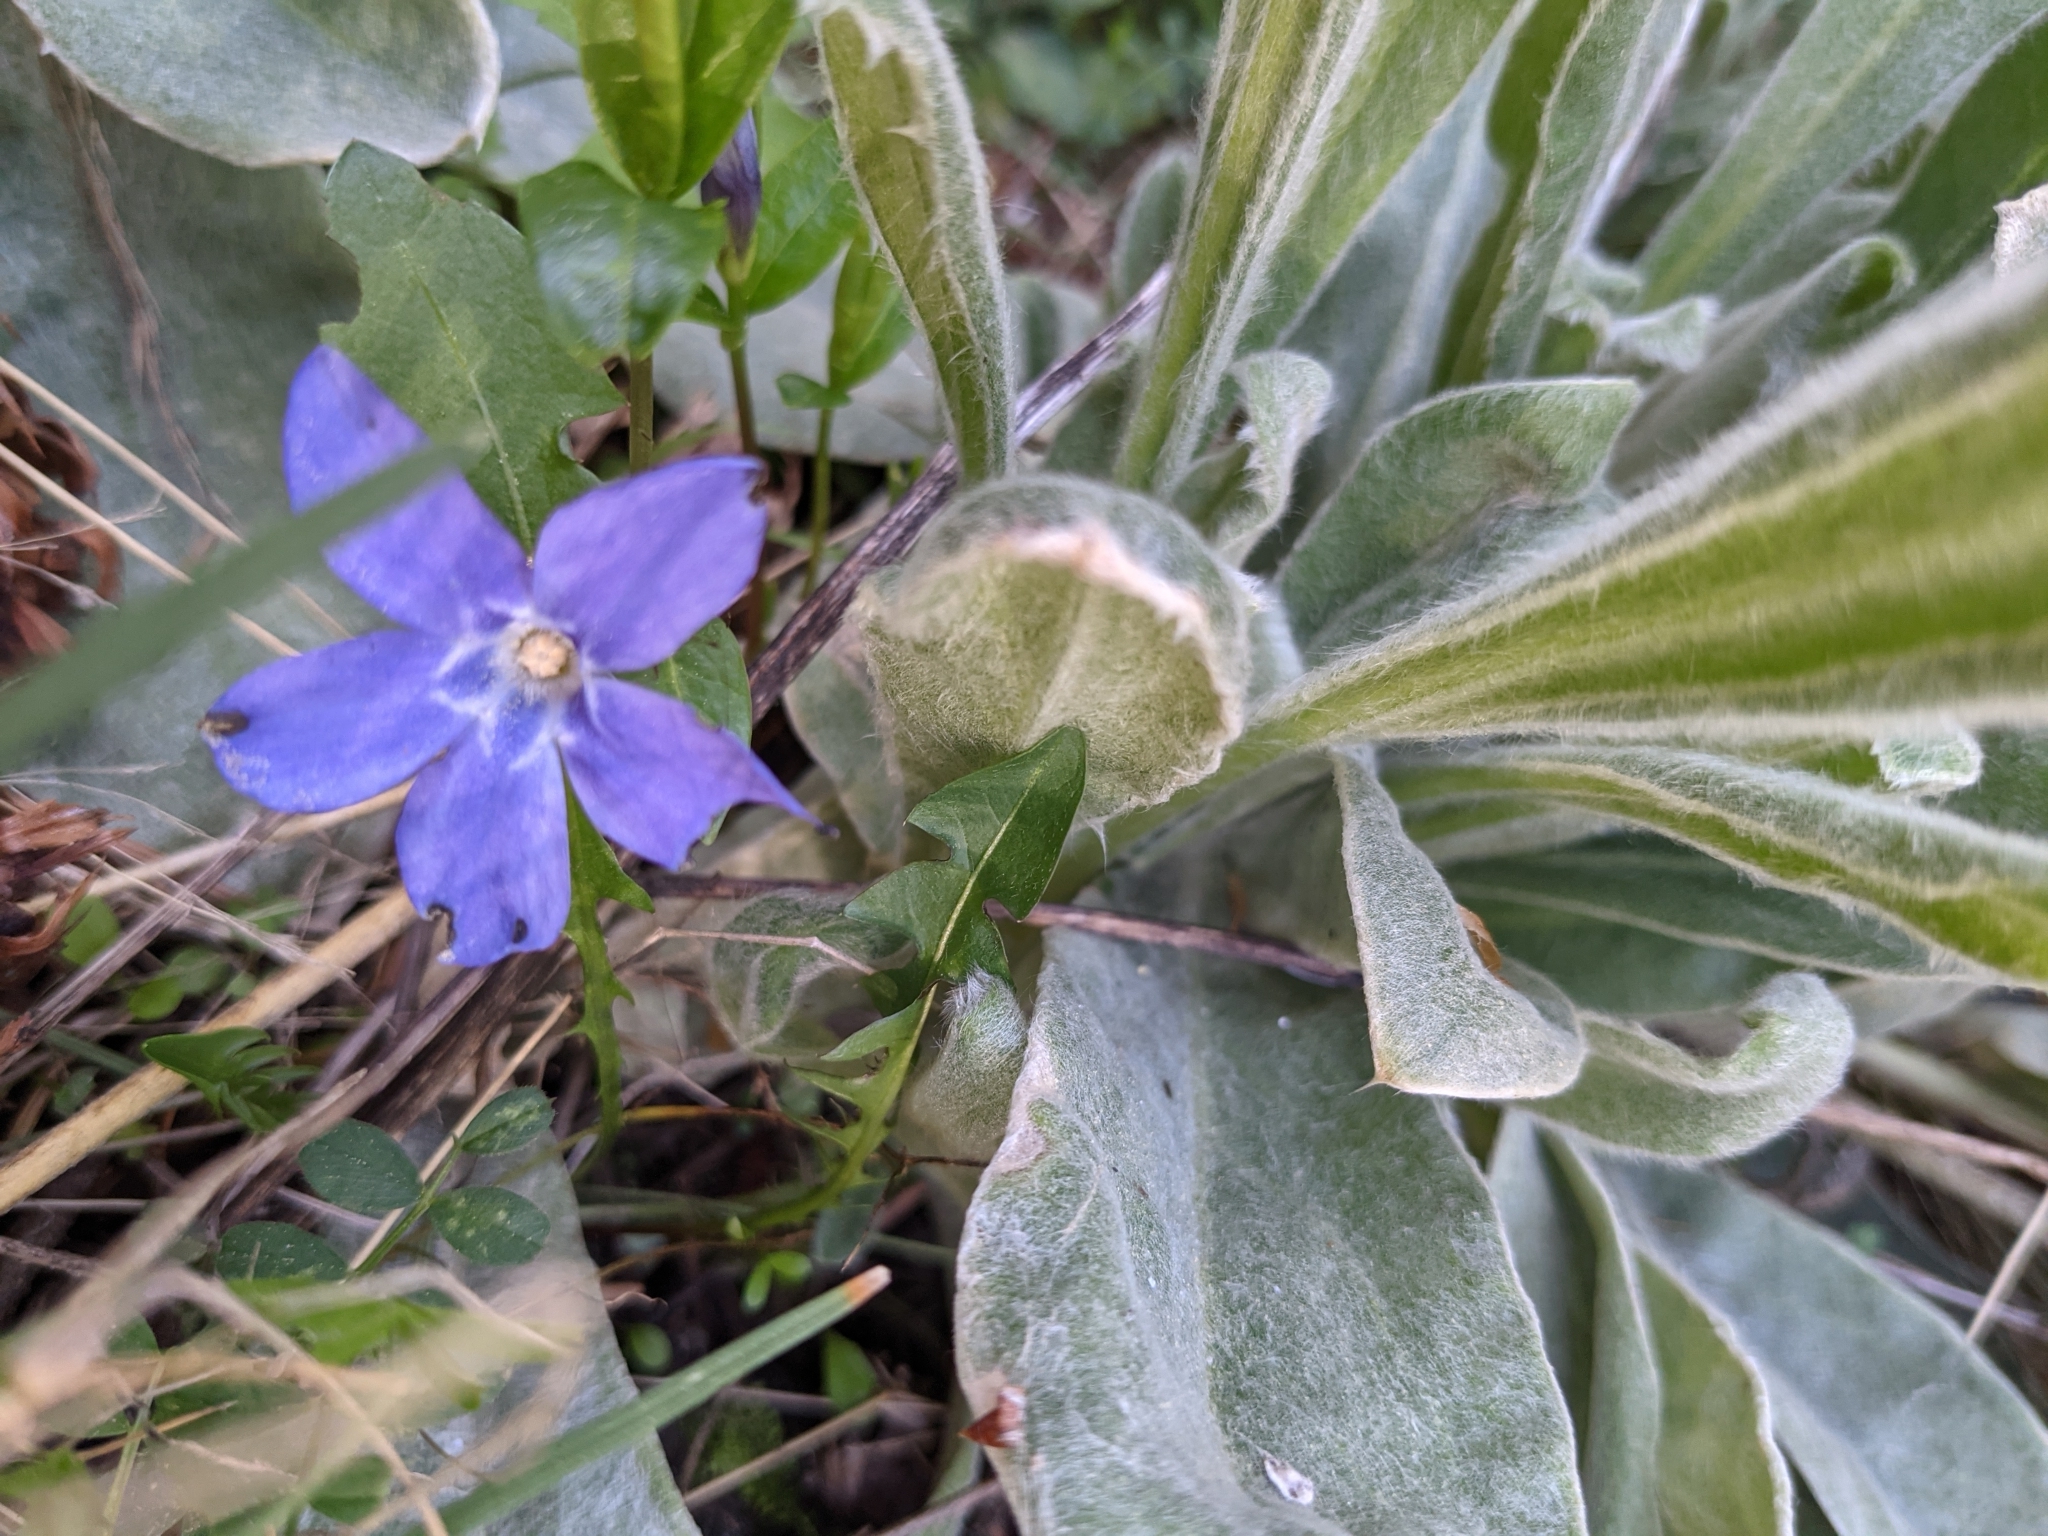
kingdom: Plantae
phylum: Tracheophyta
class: Magnoliopsida
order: Gentianales
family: Apocynaceae
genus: Vinca
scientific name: Vinca minor
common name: Lesser periwinkle
